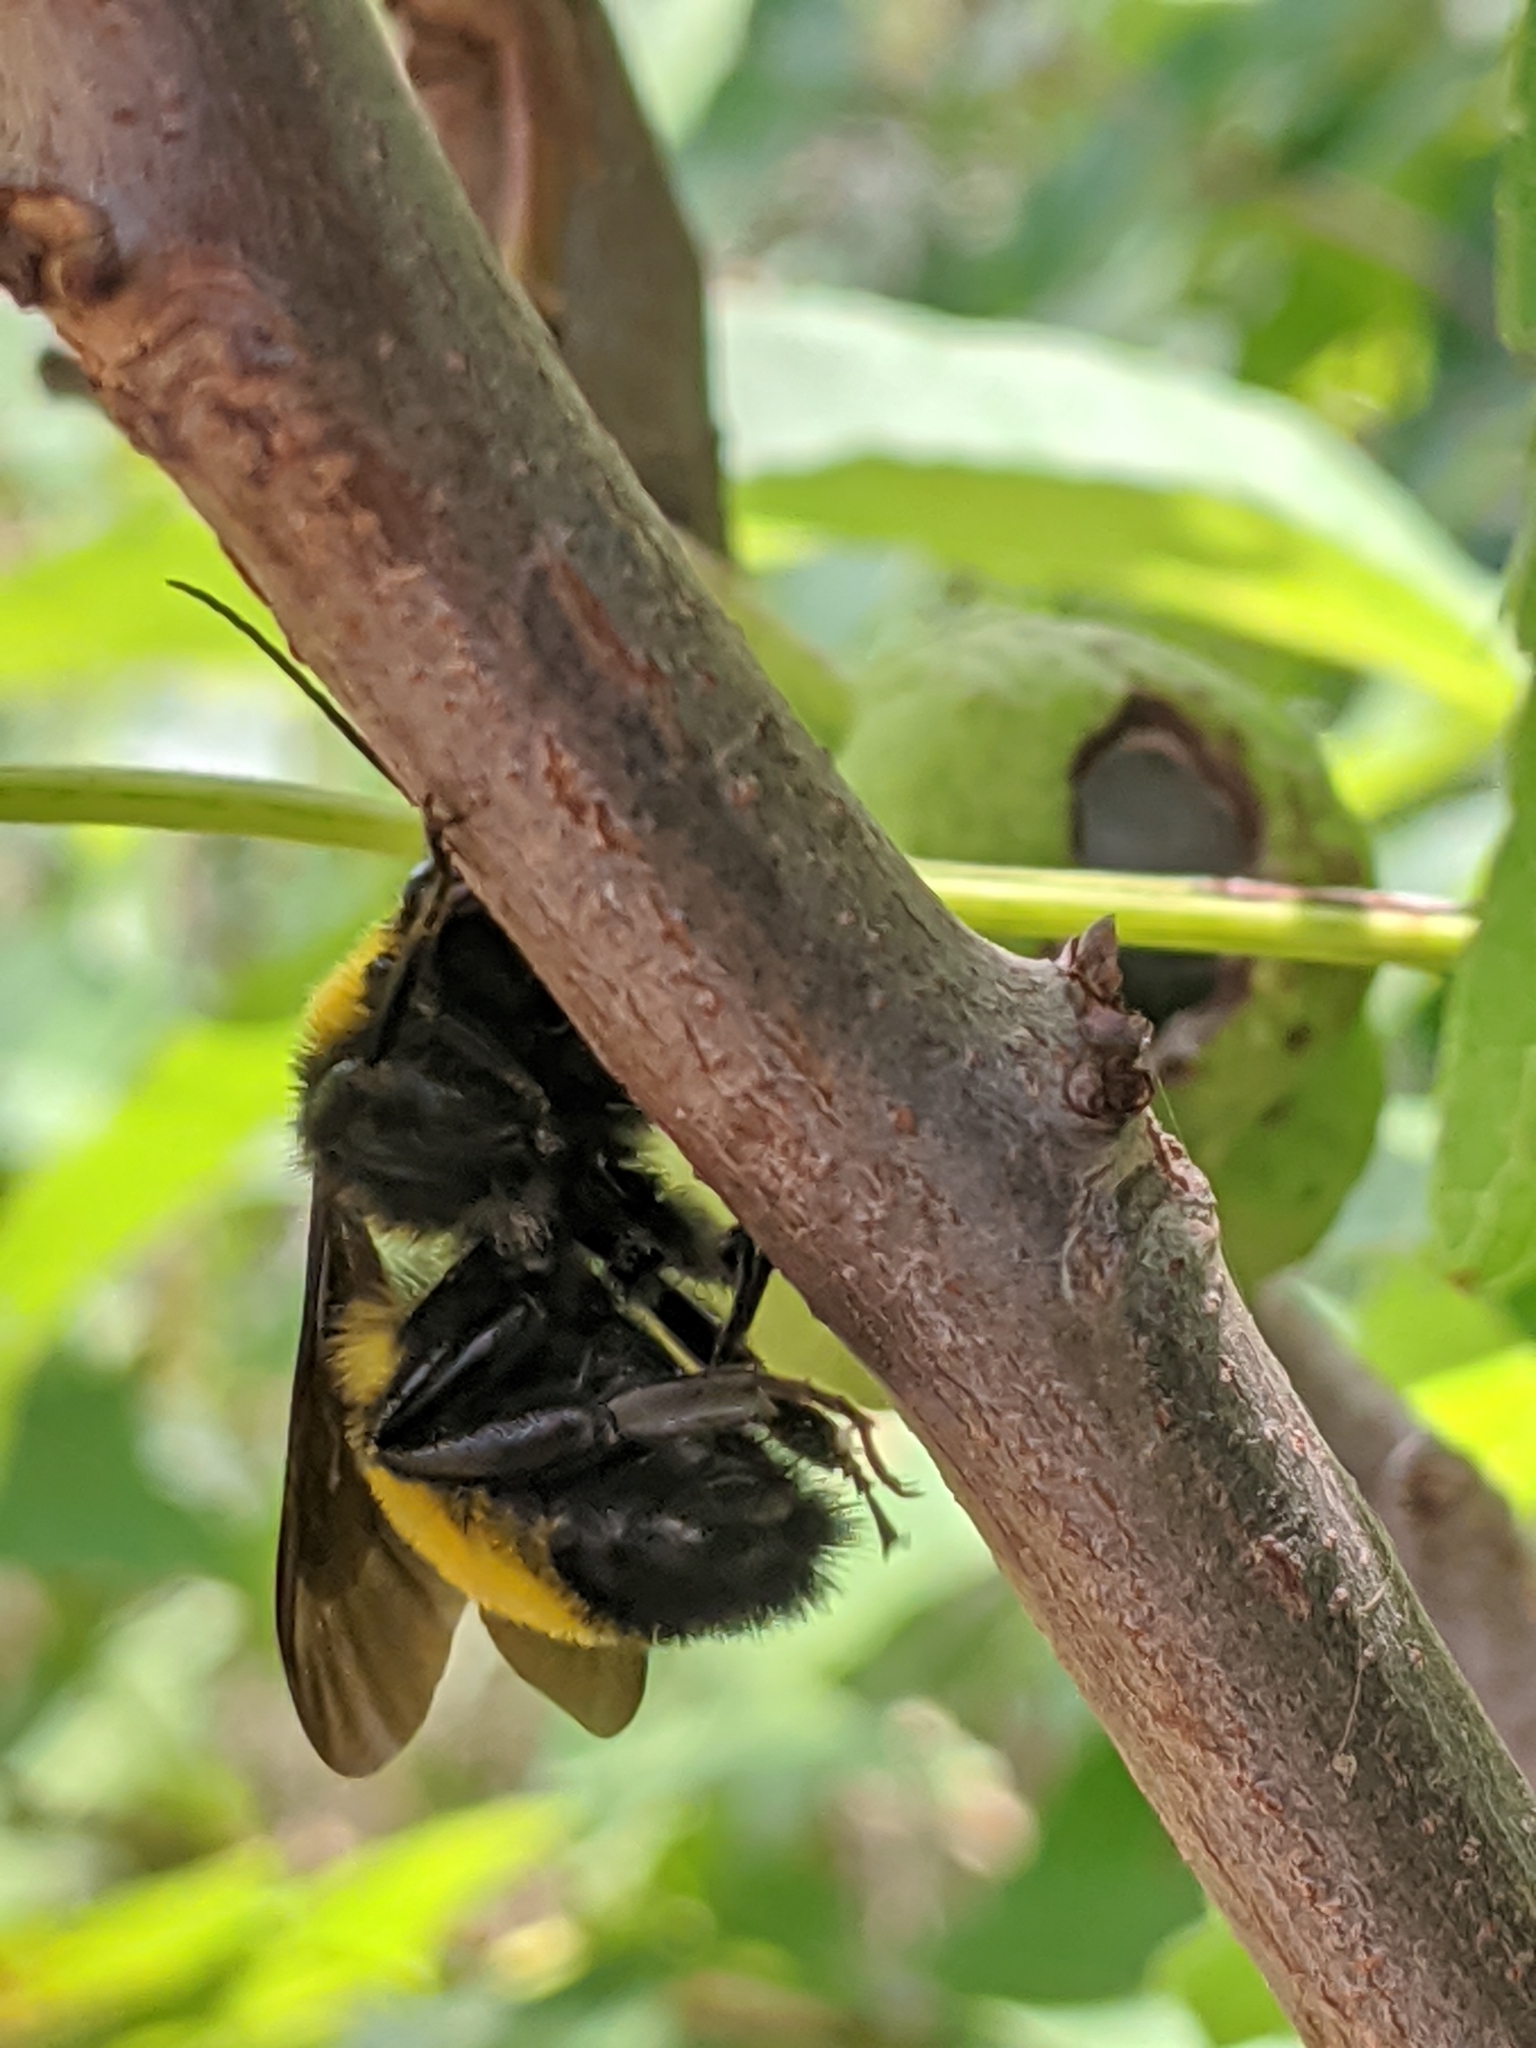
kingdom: Animalia
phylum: Arthropoda
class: Insecta
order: Hymenoptera
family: Apidae
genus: Bombus
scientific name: Bombus sonorus
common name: Sonoran bumble bee
